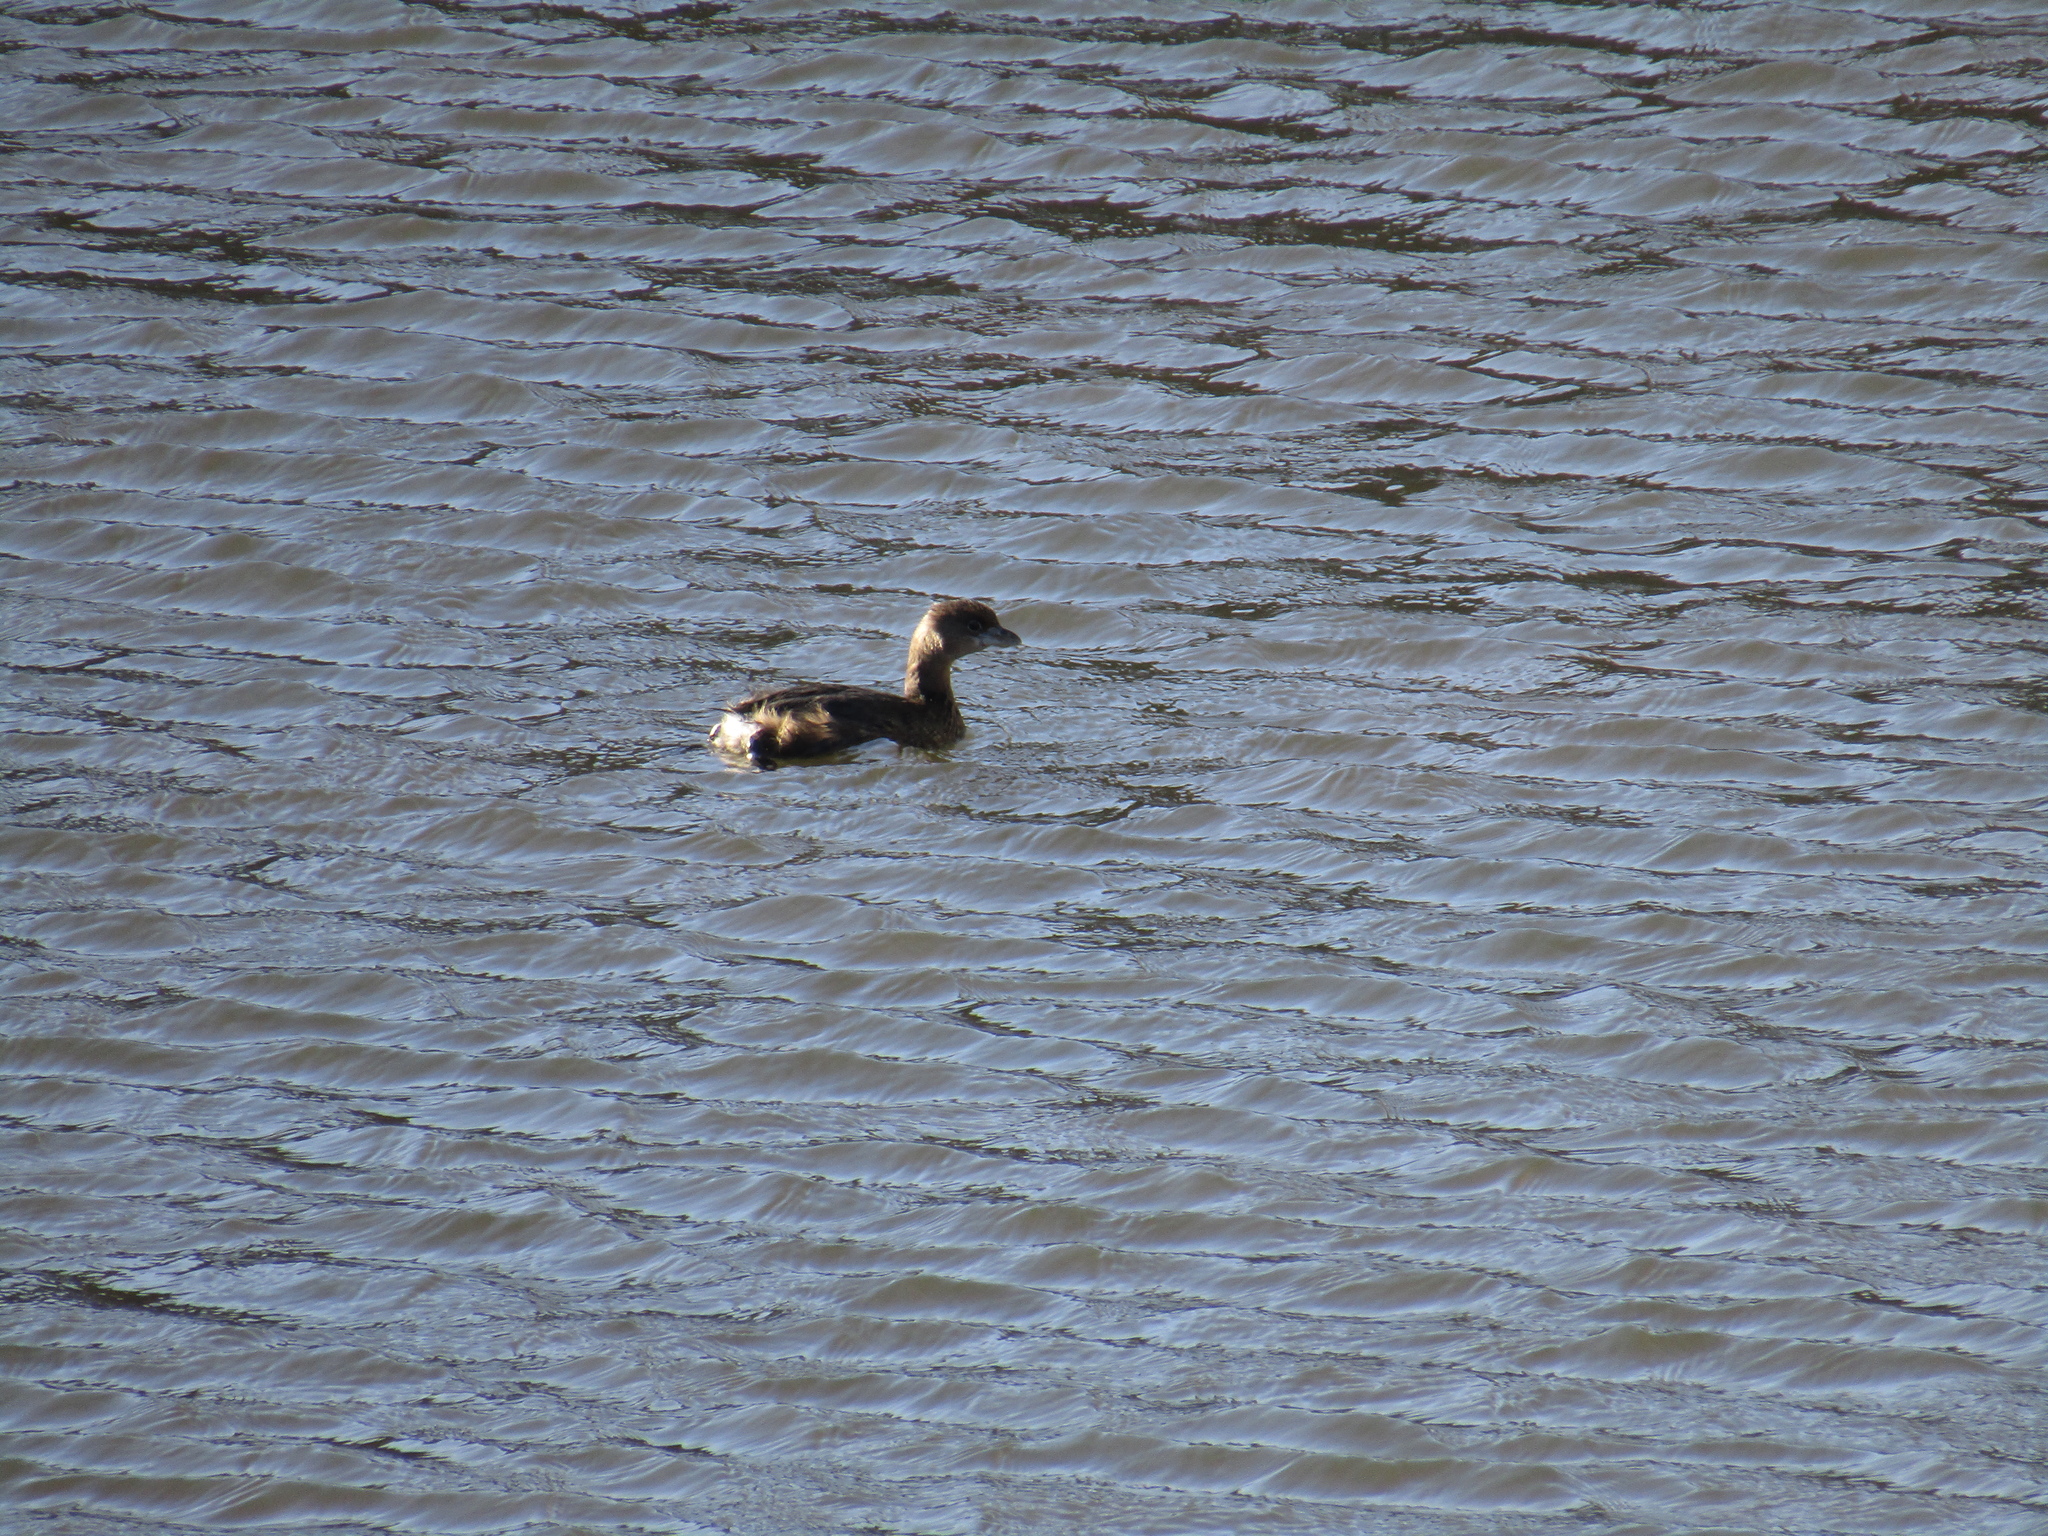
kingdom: Animalia
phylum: Chordata
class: Aves
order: Podicipediformes
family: Podicipedidae
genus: Podilymbus
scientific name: Podilymbus podiceps
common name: Pied-billed grebe
